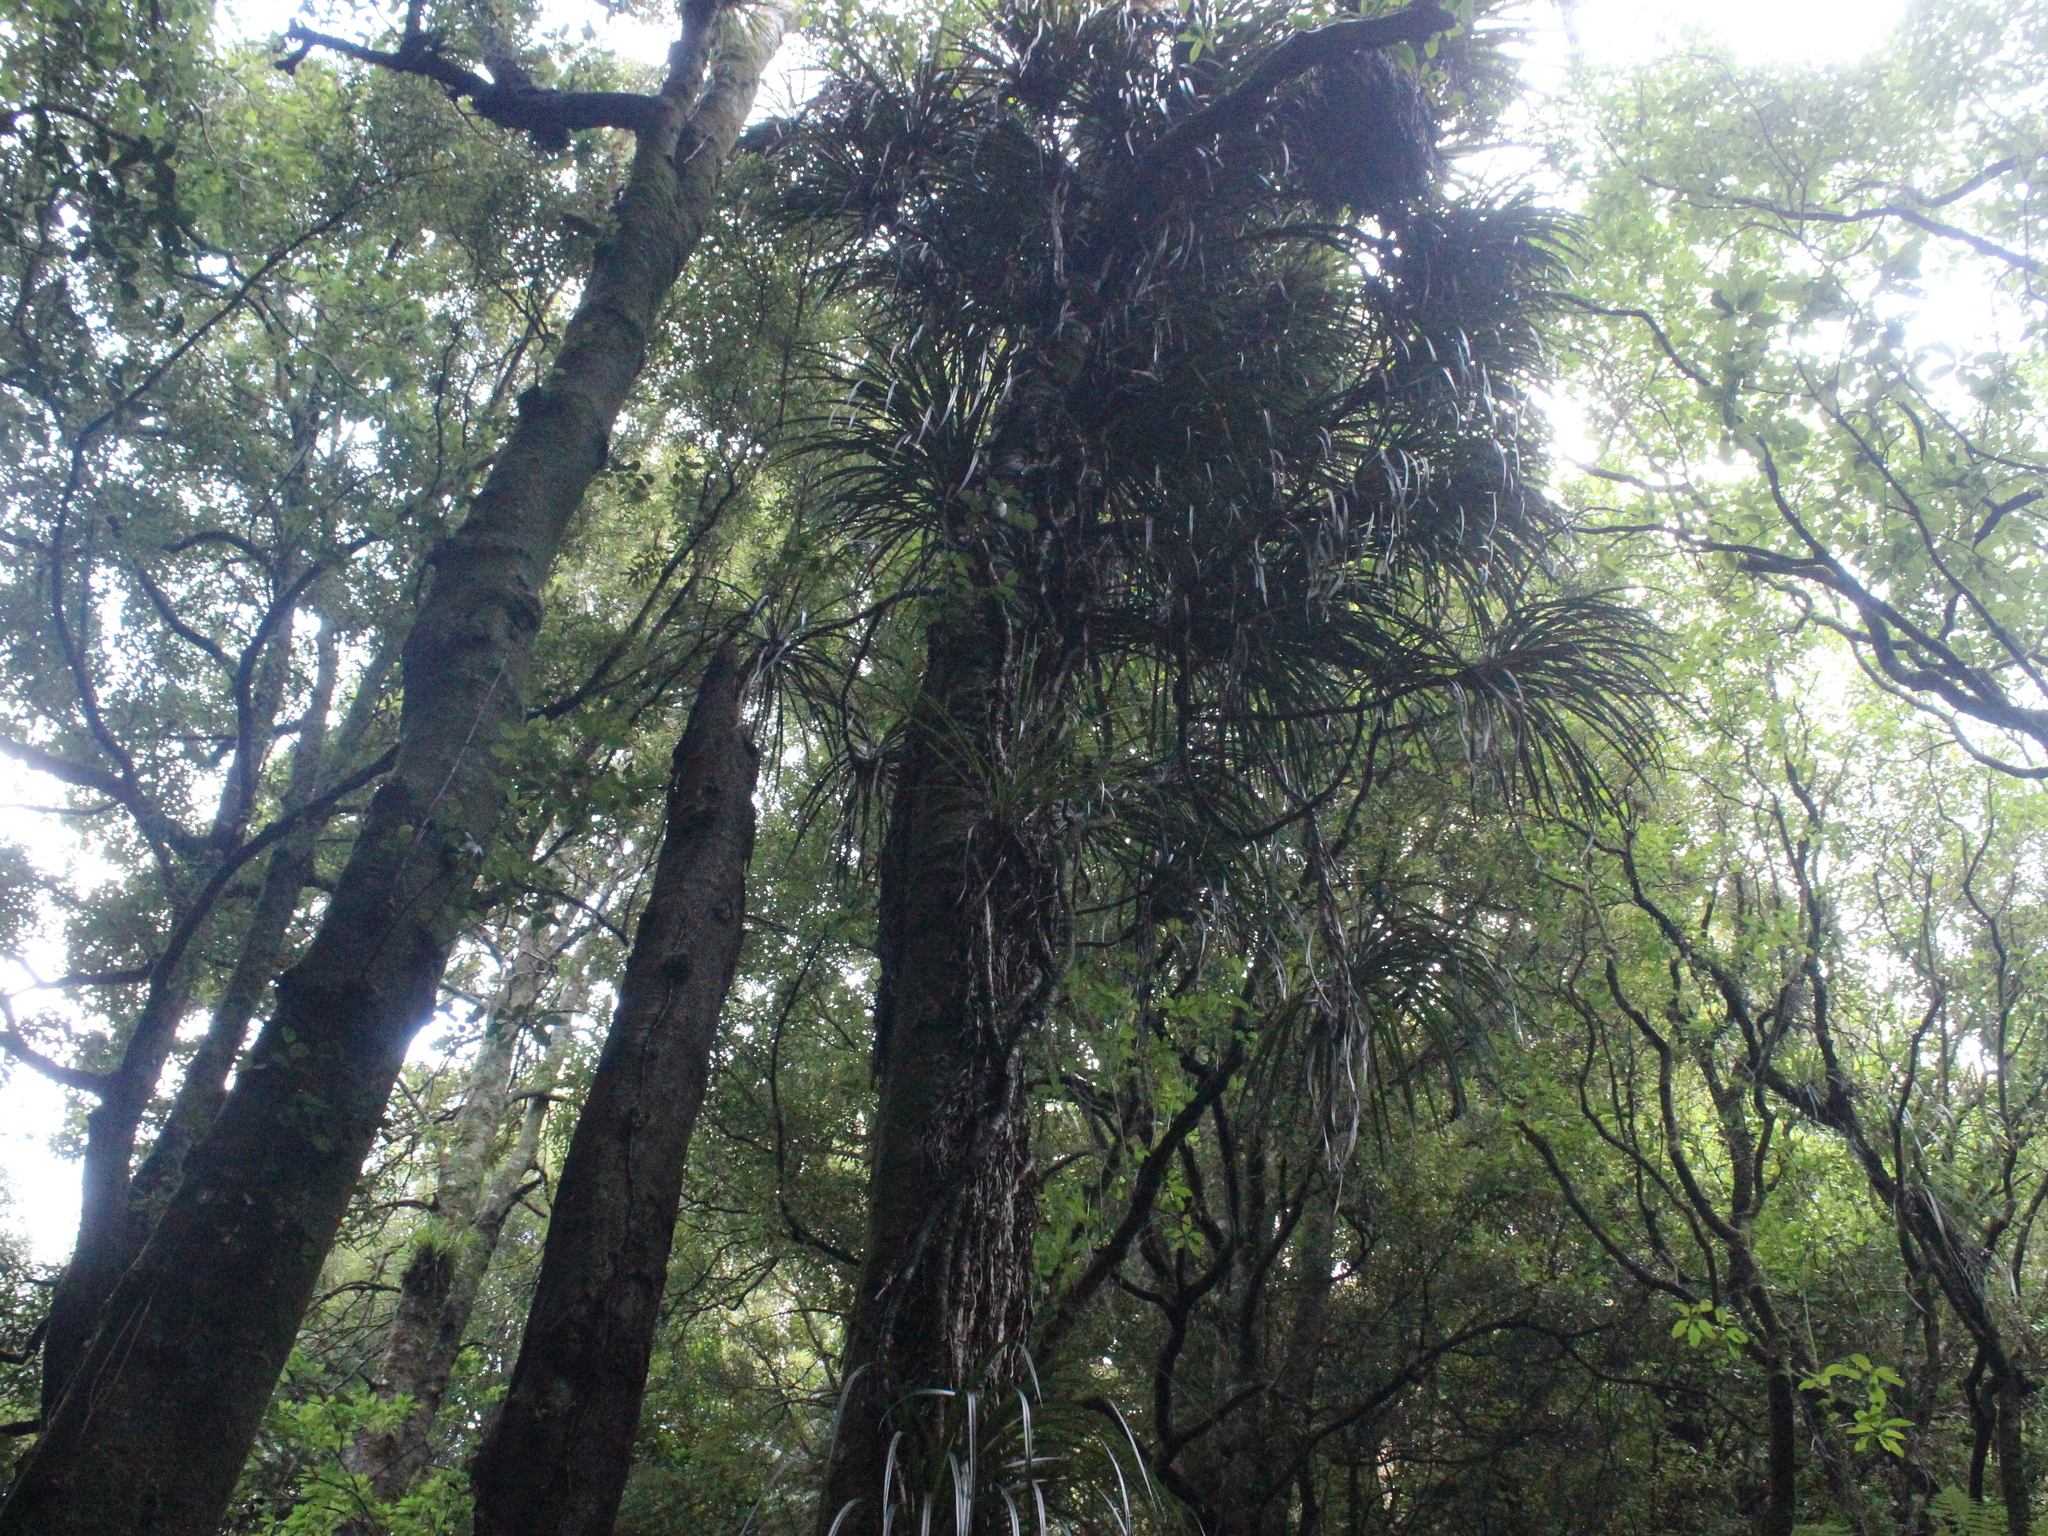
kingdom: Plantae
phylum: Tracheophyta
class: Liliopsida
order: Pandanales
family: Pandanaceae
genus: Freycinetia
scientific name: Freycinetia banksii
